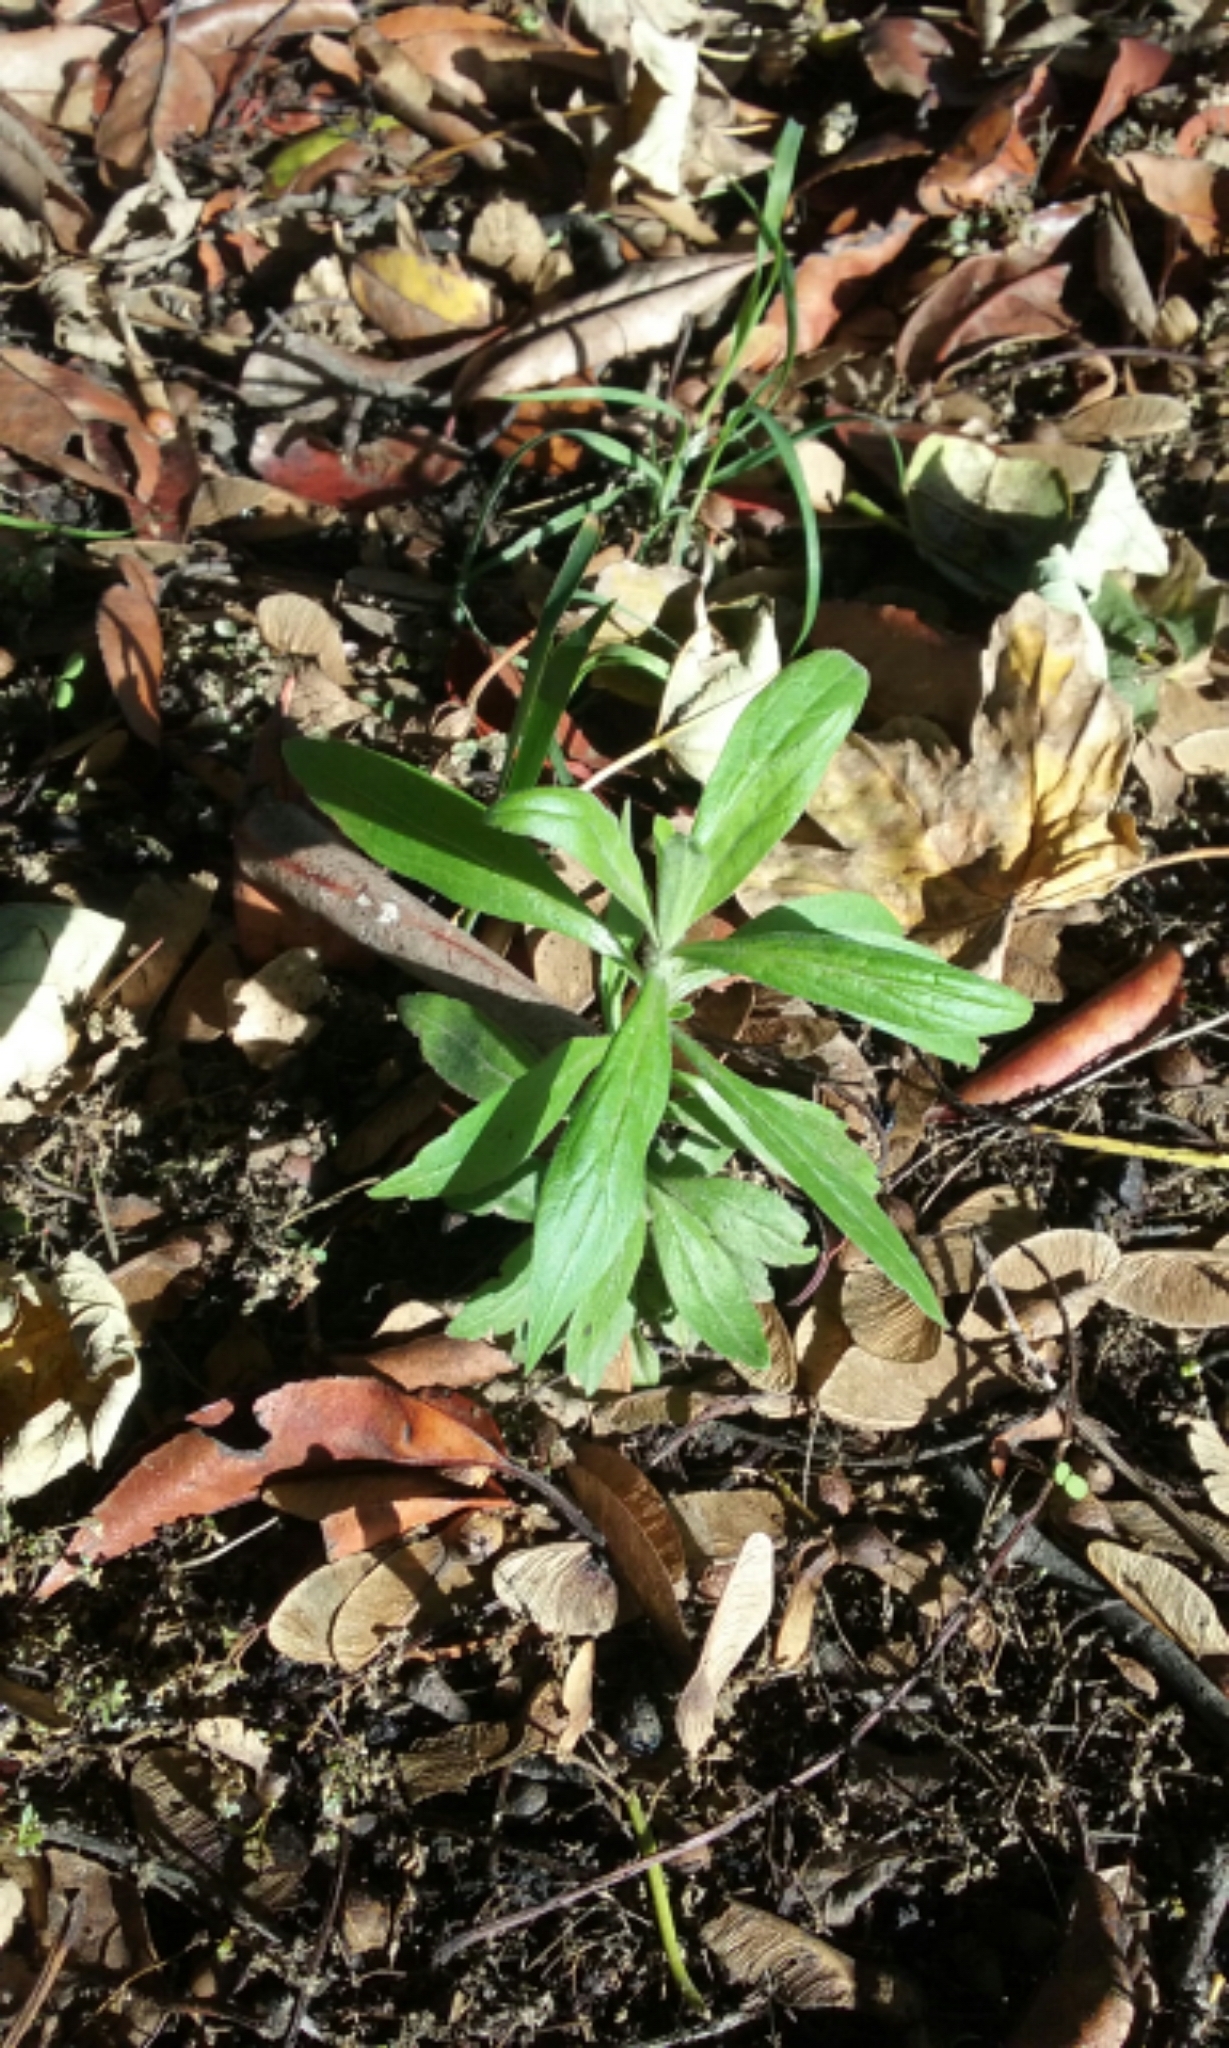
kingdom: Plantae
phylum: Tracheophyta
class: Magnoliopsida
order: Asterales
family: Asteraceae
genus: Erigeron
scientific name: Erigeron sumatrensis
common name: Daisy
